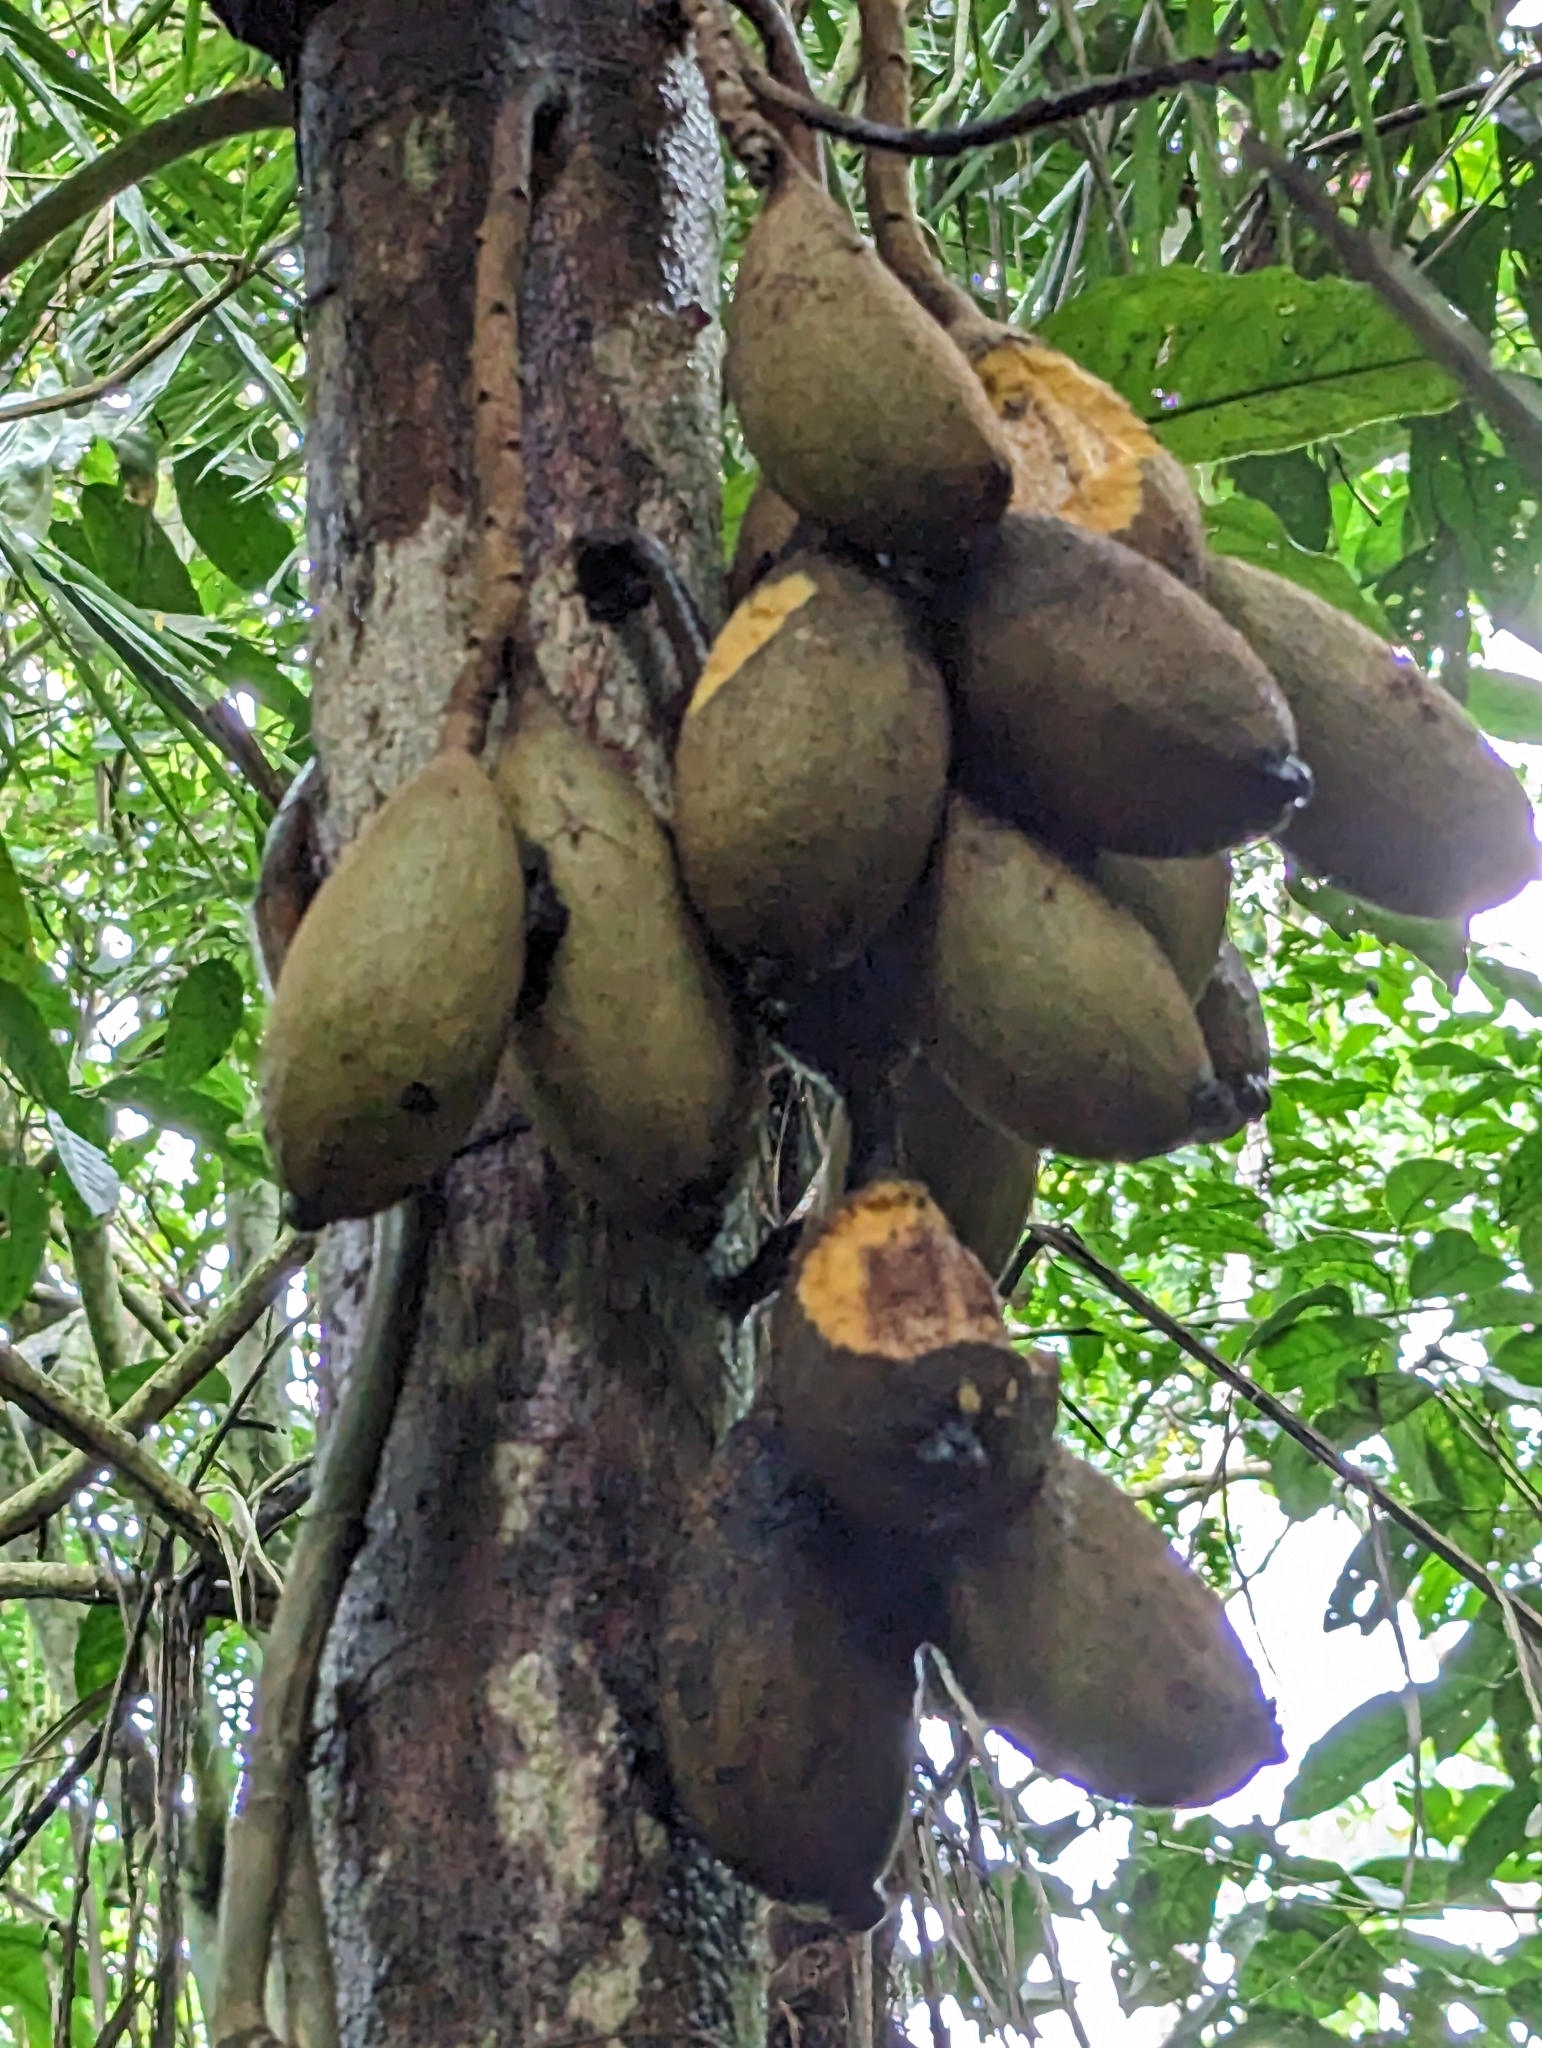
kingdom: Plantae
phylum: Tracheophyta
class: Magnoliopsida
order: Ericales
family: Lecythidaceae
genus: Grias
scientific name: Grias neuberthii
